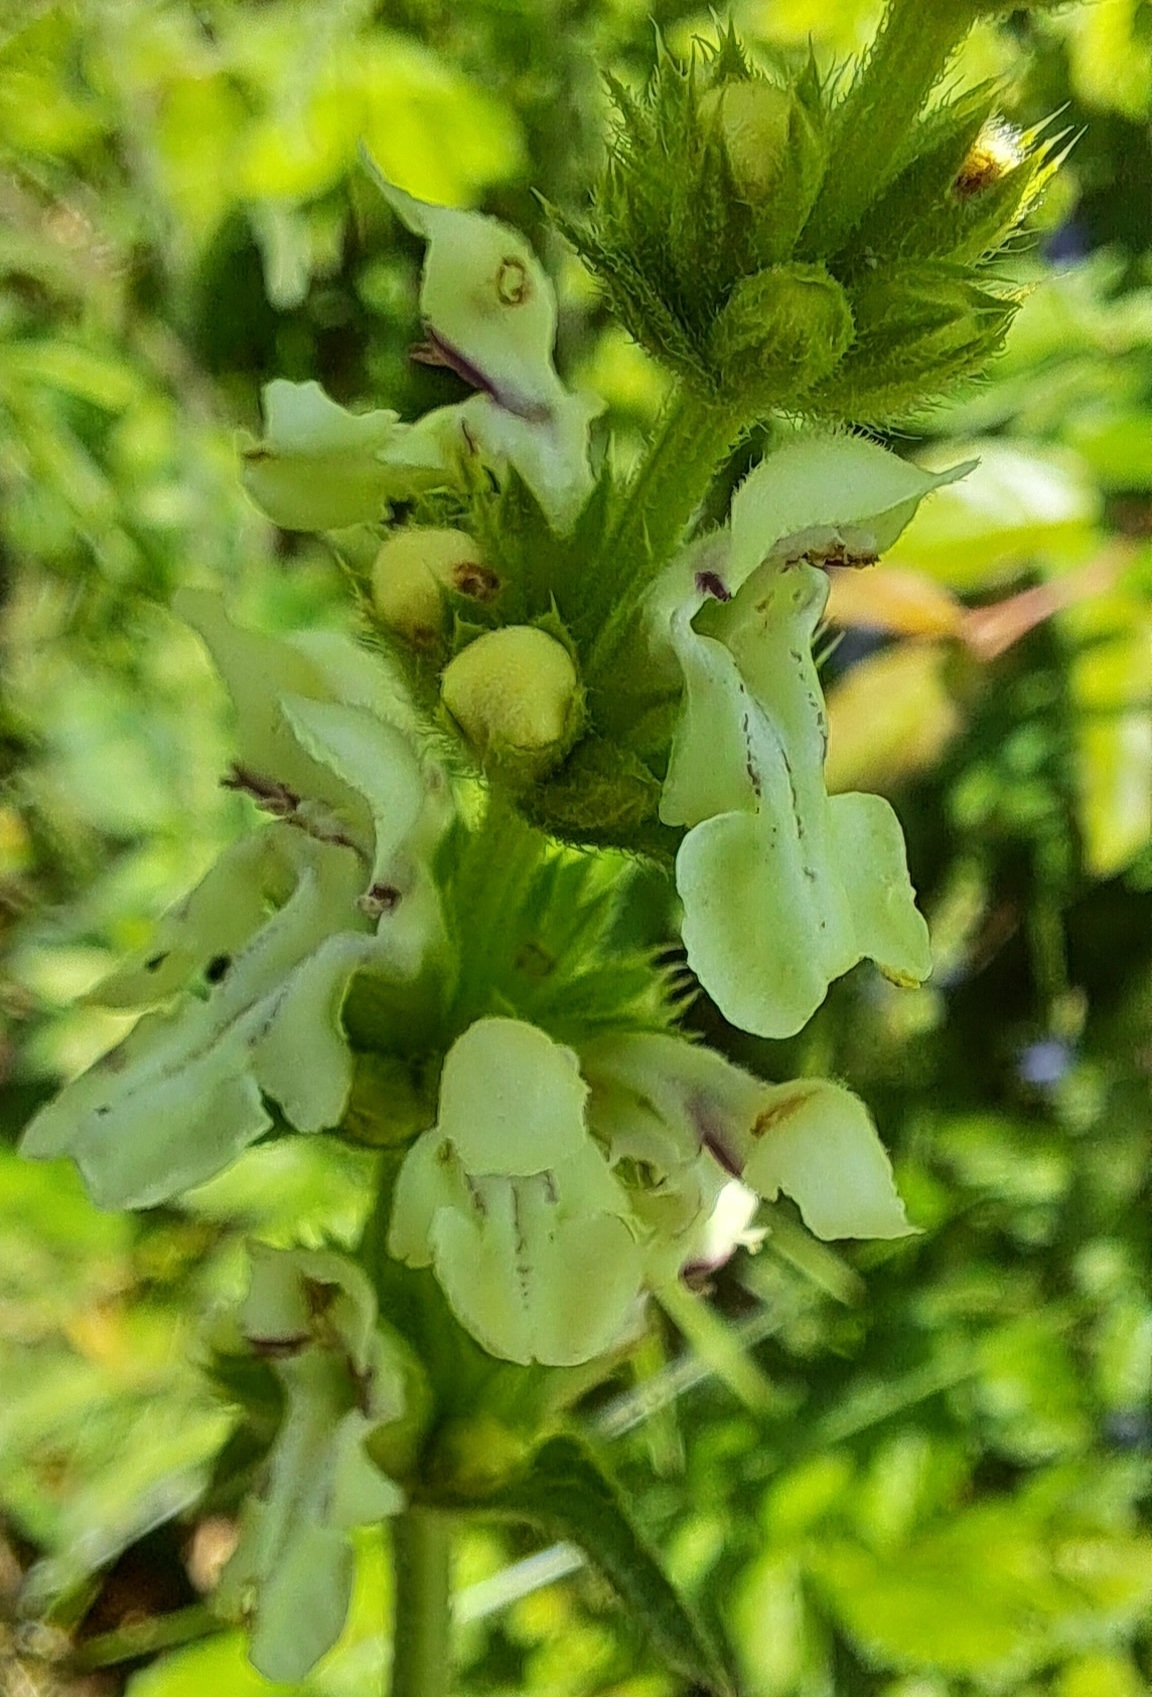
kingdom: Plantae
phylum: Tracheophyta
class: Magnoliopsida
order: Lamiales
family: Lamiaceae
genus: Stachys
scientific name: Stachys recta
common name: Perennial yellow-woundwort
